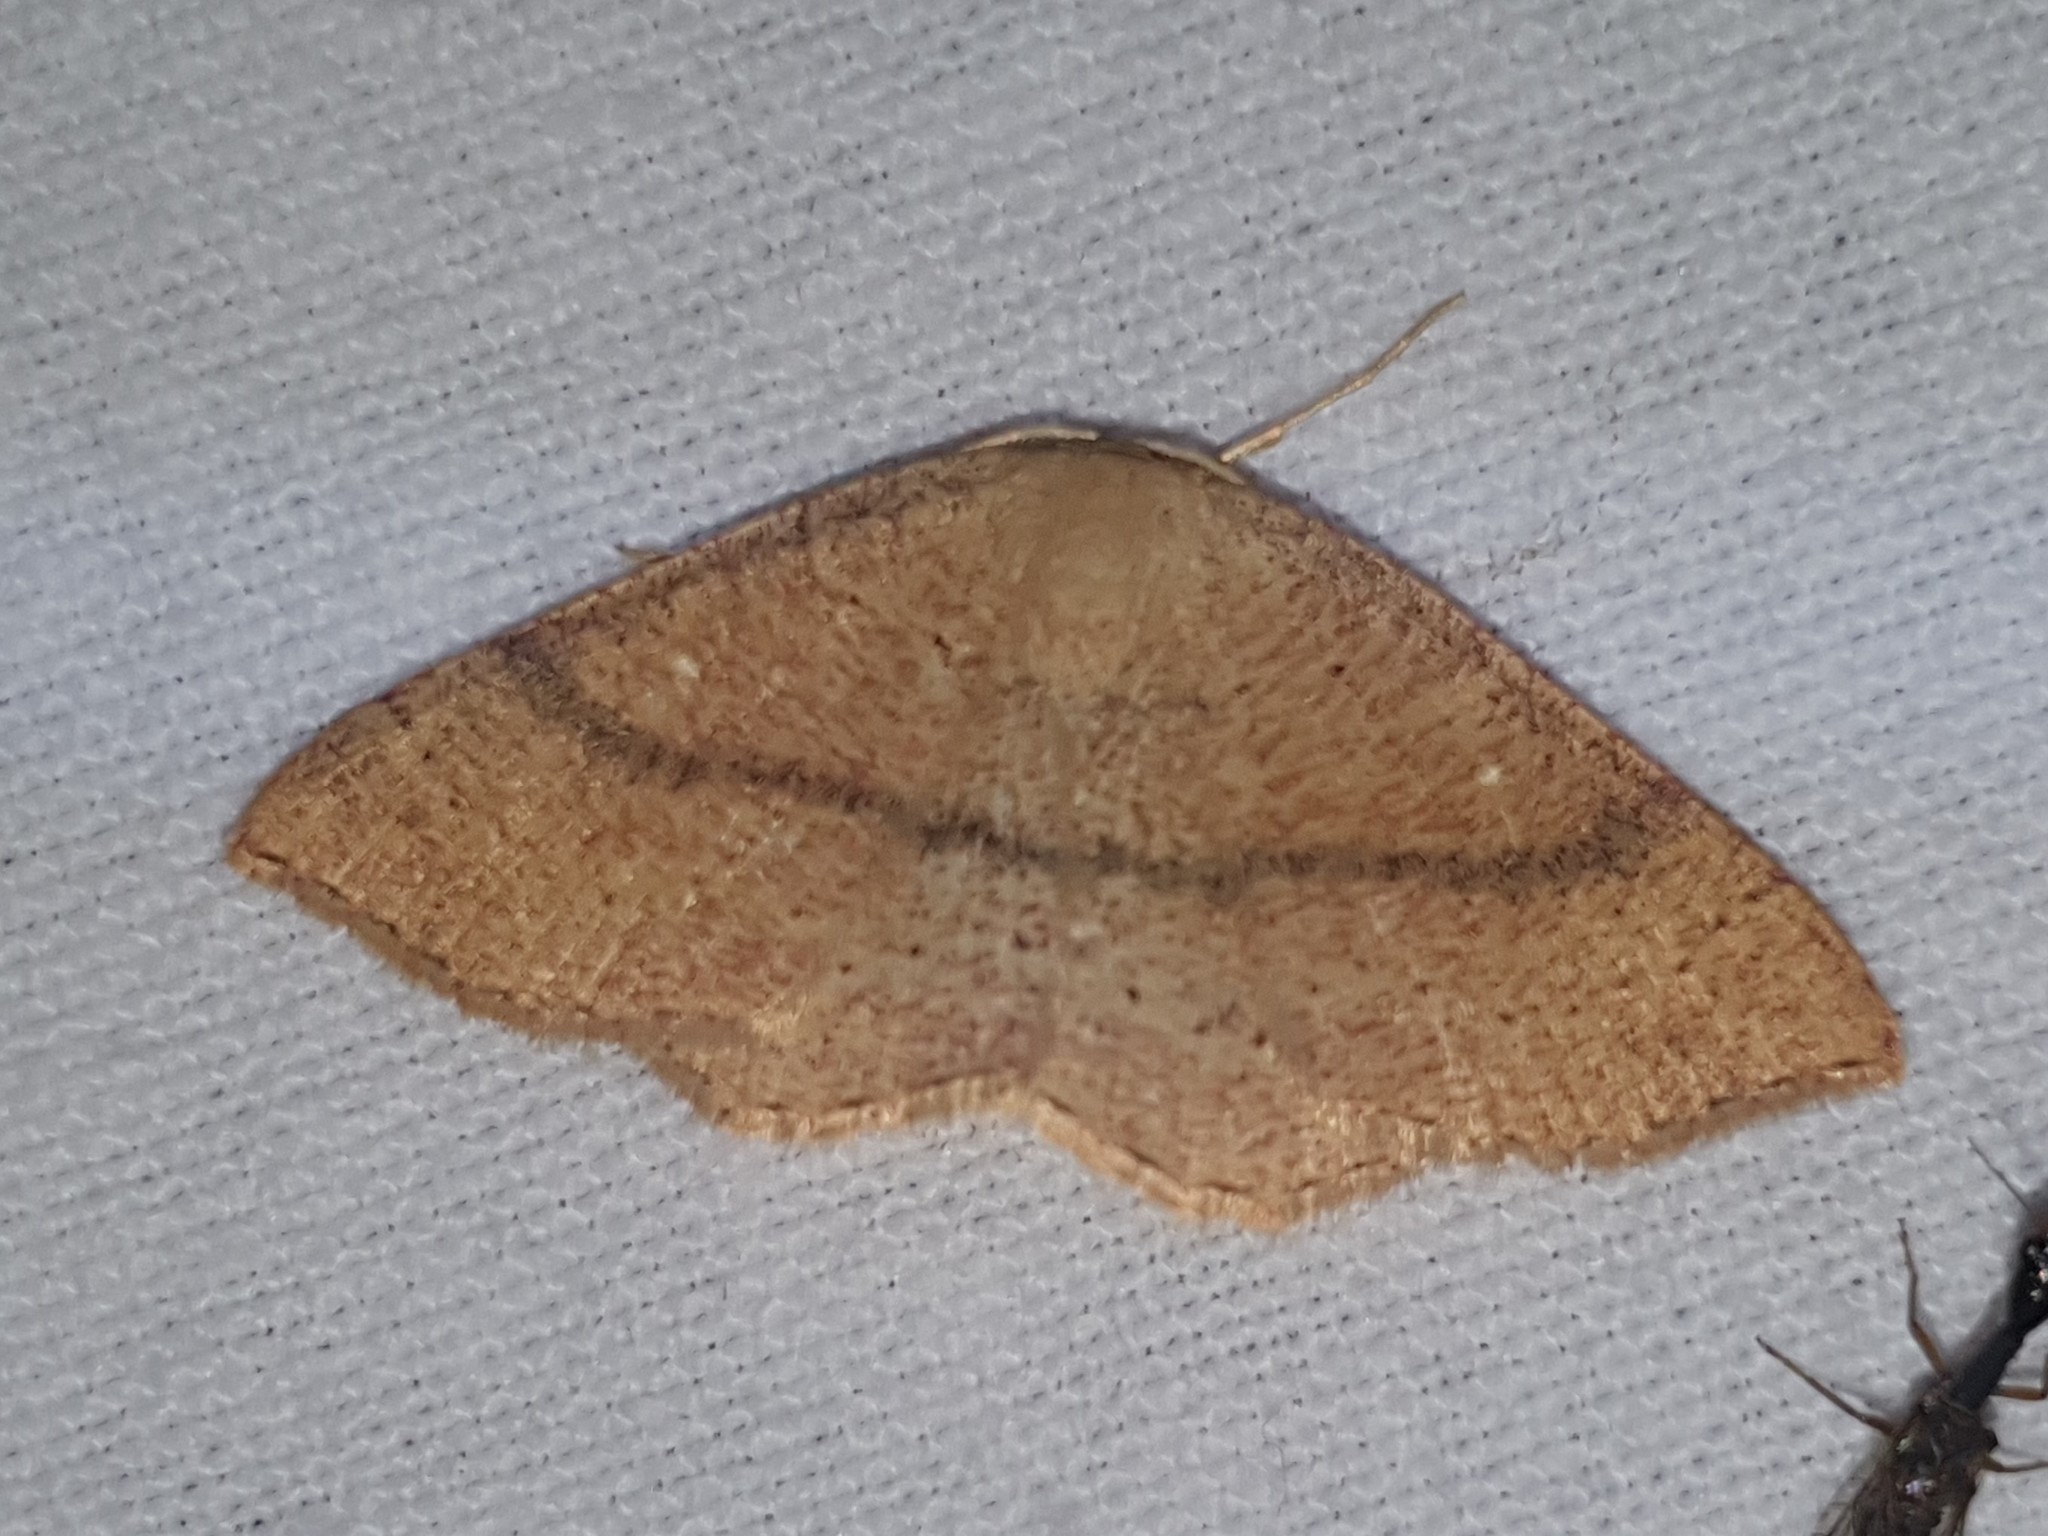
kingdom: Animalia
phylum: Arthropoda
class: Insecta
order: Lepidoptera
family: Geometridae
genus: Cyclophora
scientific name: Cyclophora linearia
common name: Clay triple-lines
